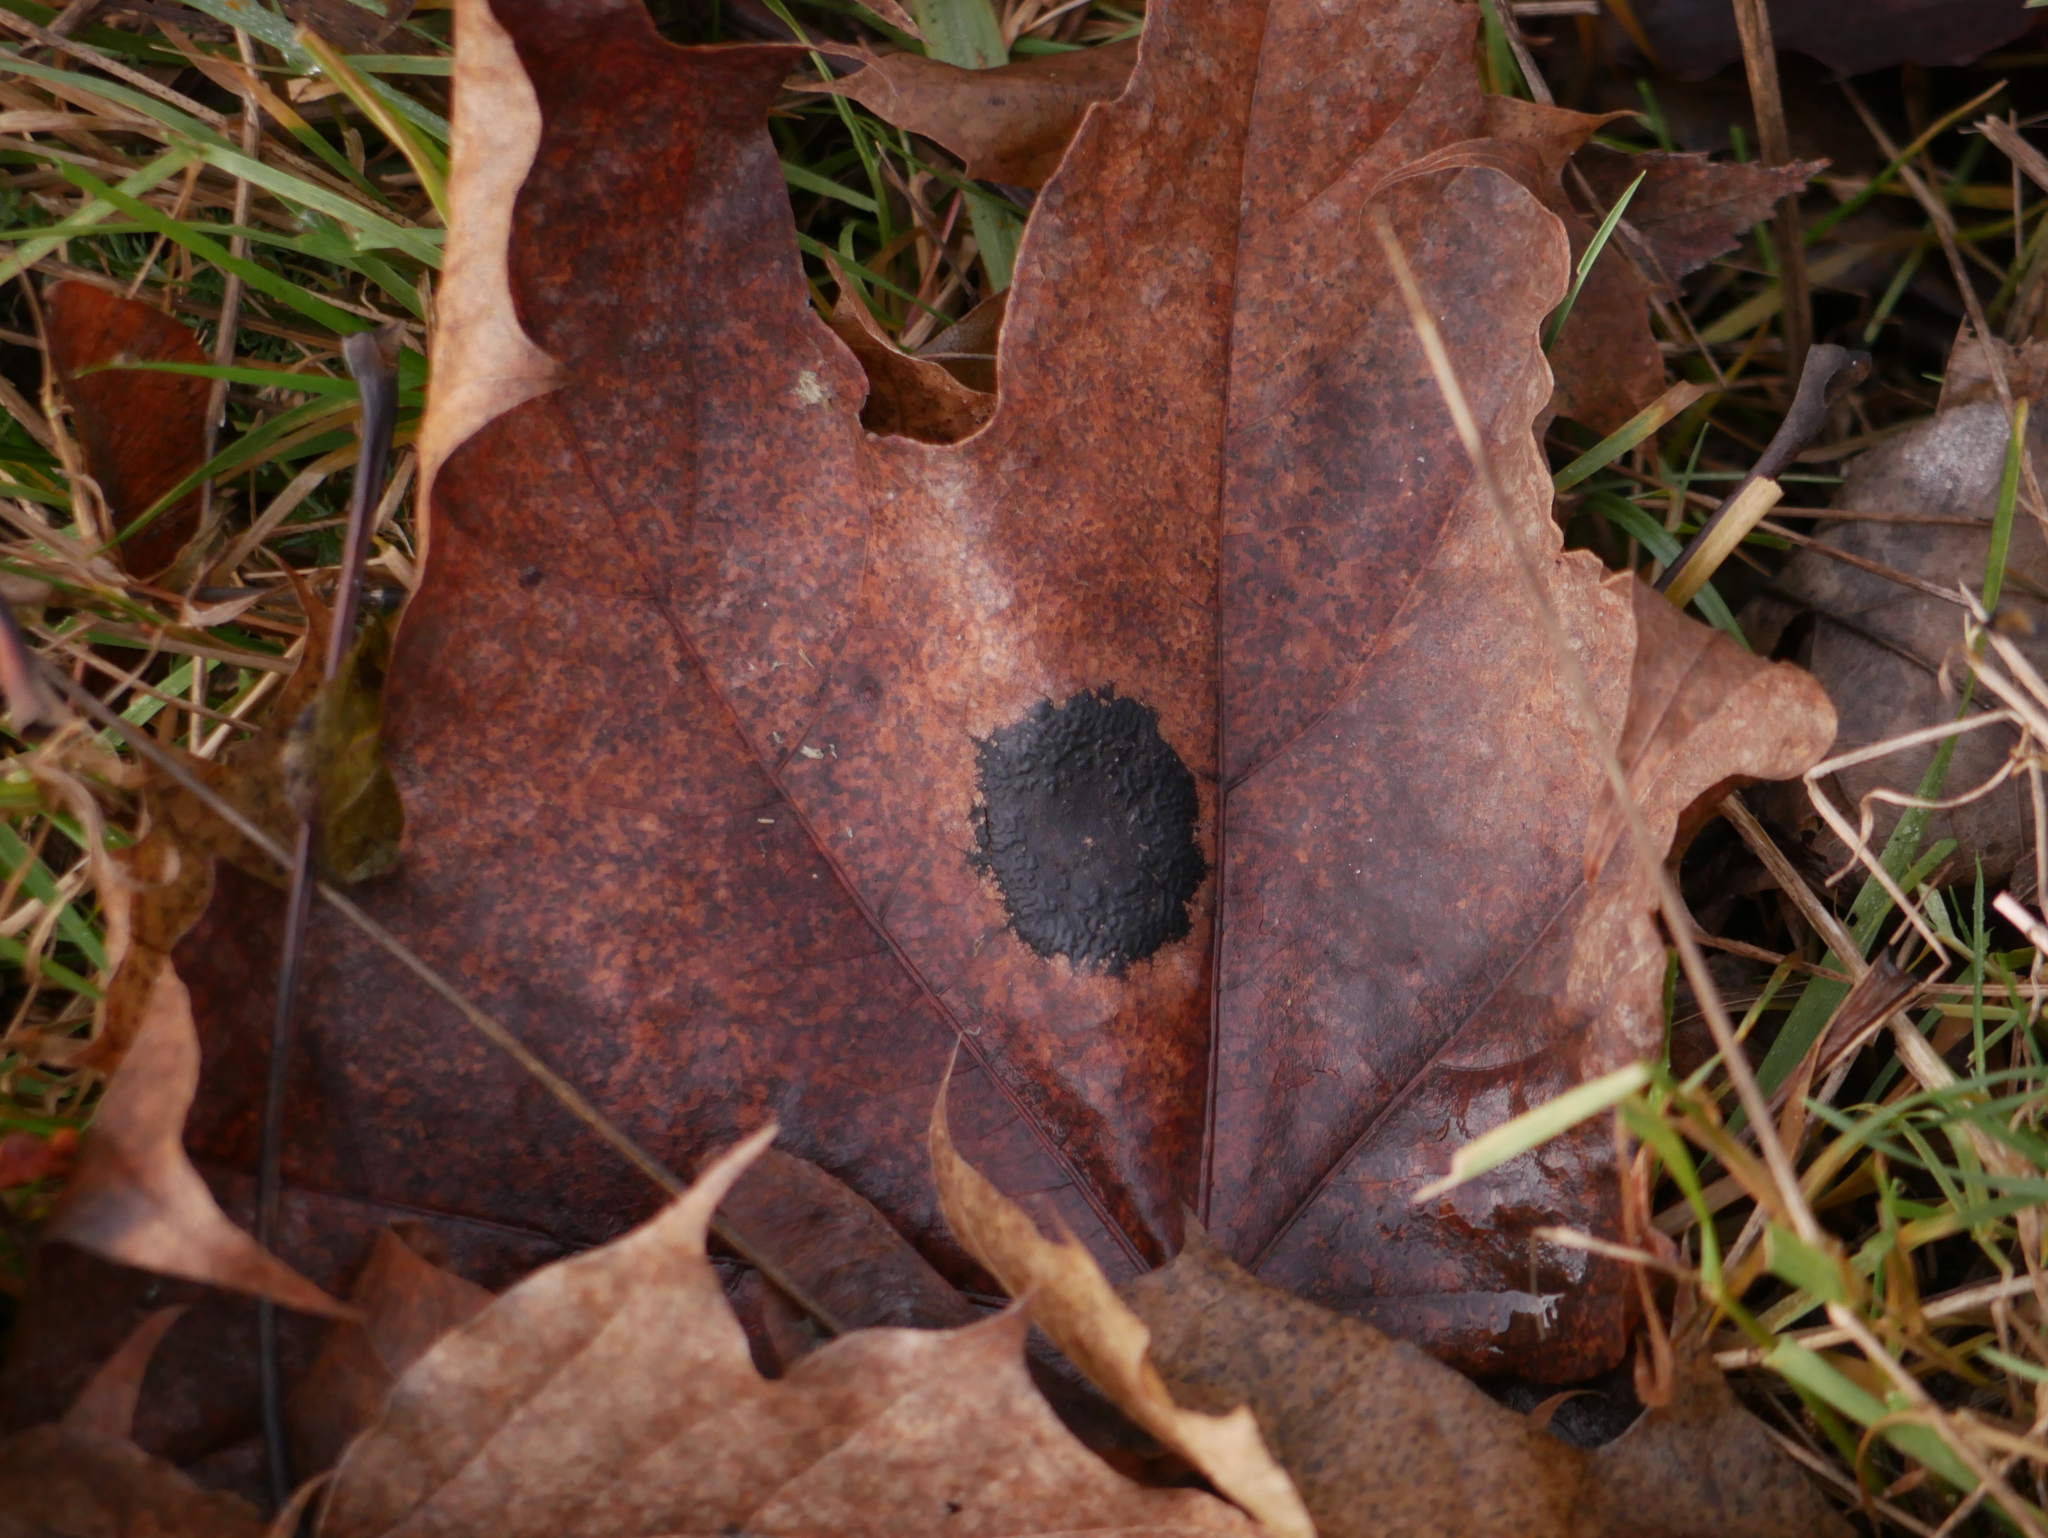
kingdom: Fungi
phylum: Ascomycota
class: Leotiomycetes
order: Rhytismatales
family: Rhytismataceae
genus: Rhytisma
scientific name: Rhytisma acerinum
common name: European tar spot
